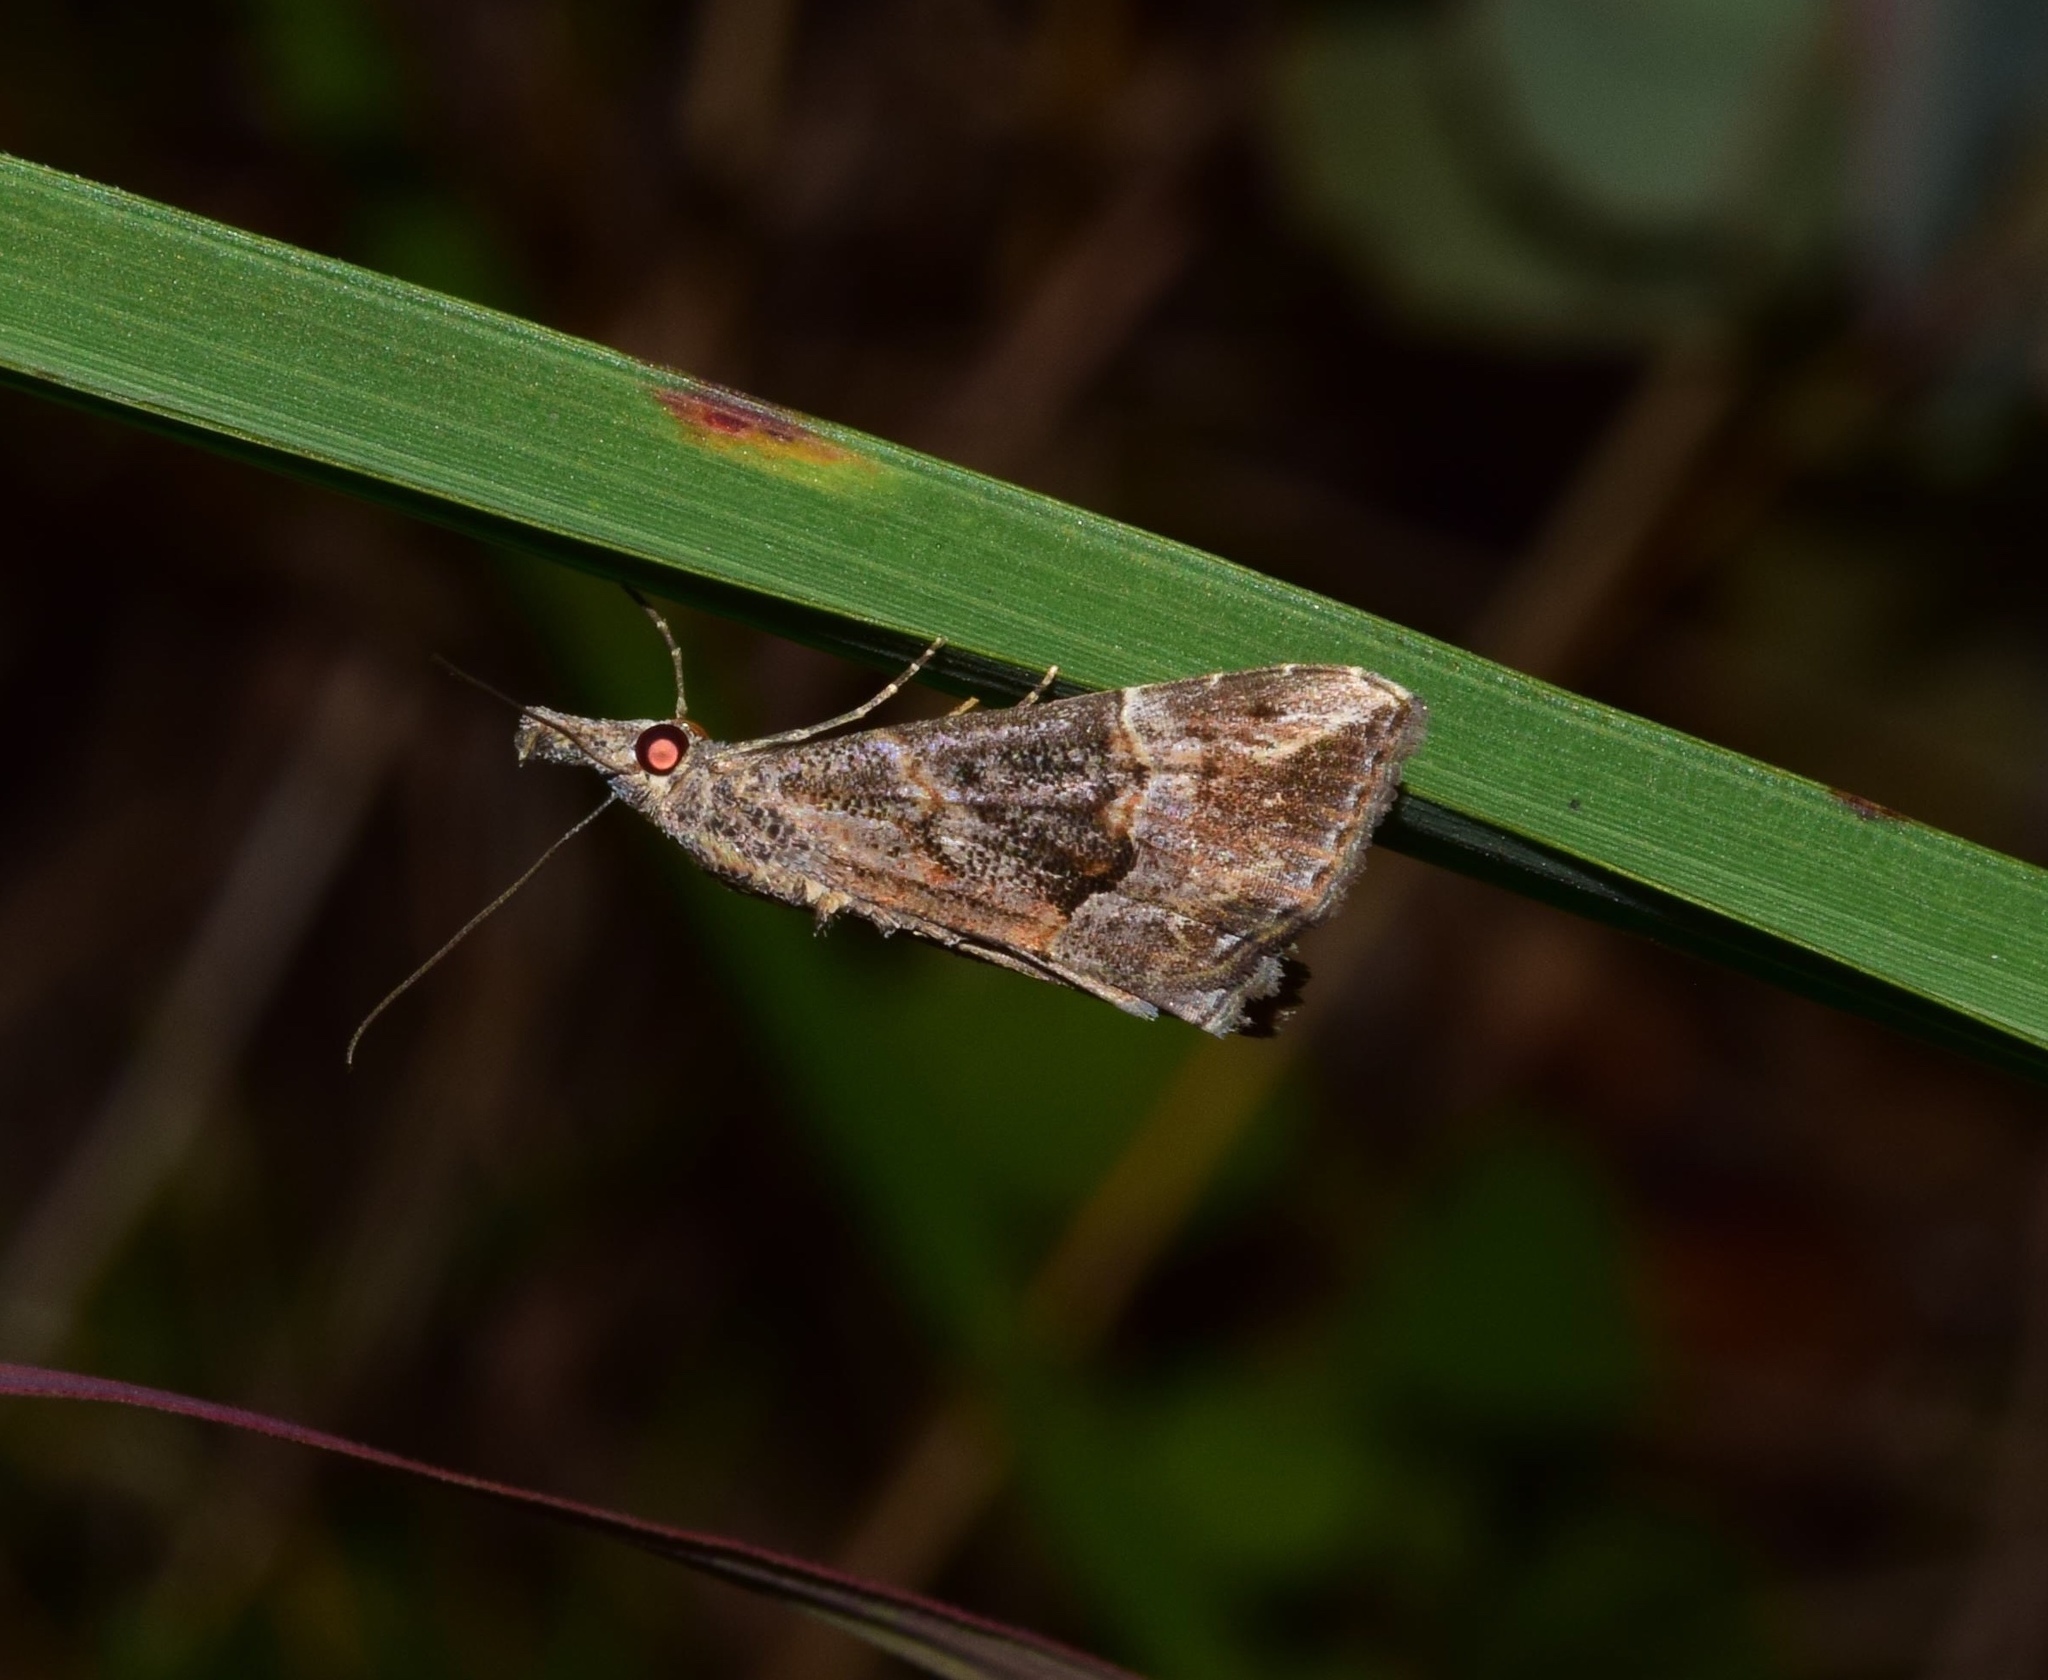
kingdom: Animalia
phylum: Arthropoda
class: Insecta
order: Lepidoptera
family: Erebidae
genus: Hypena
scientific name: Hypena saltalis
